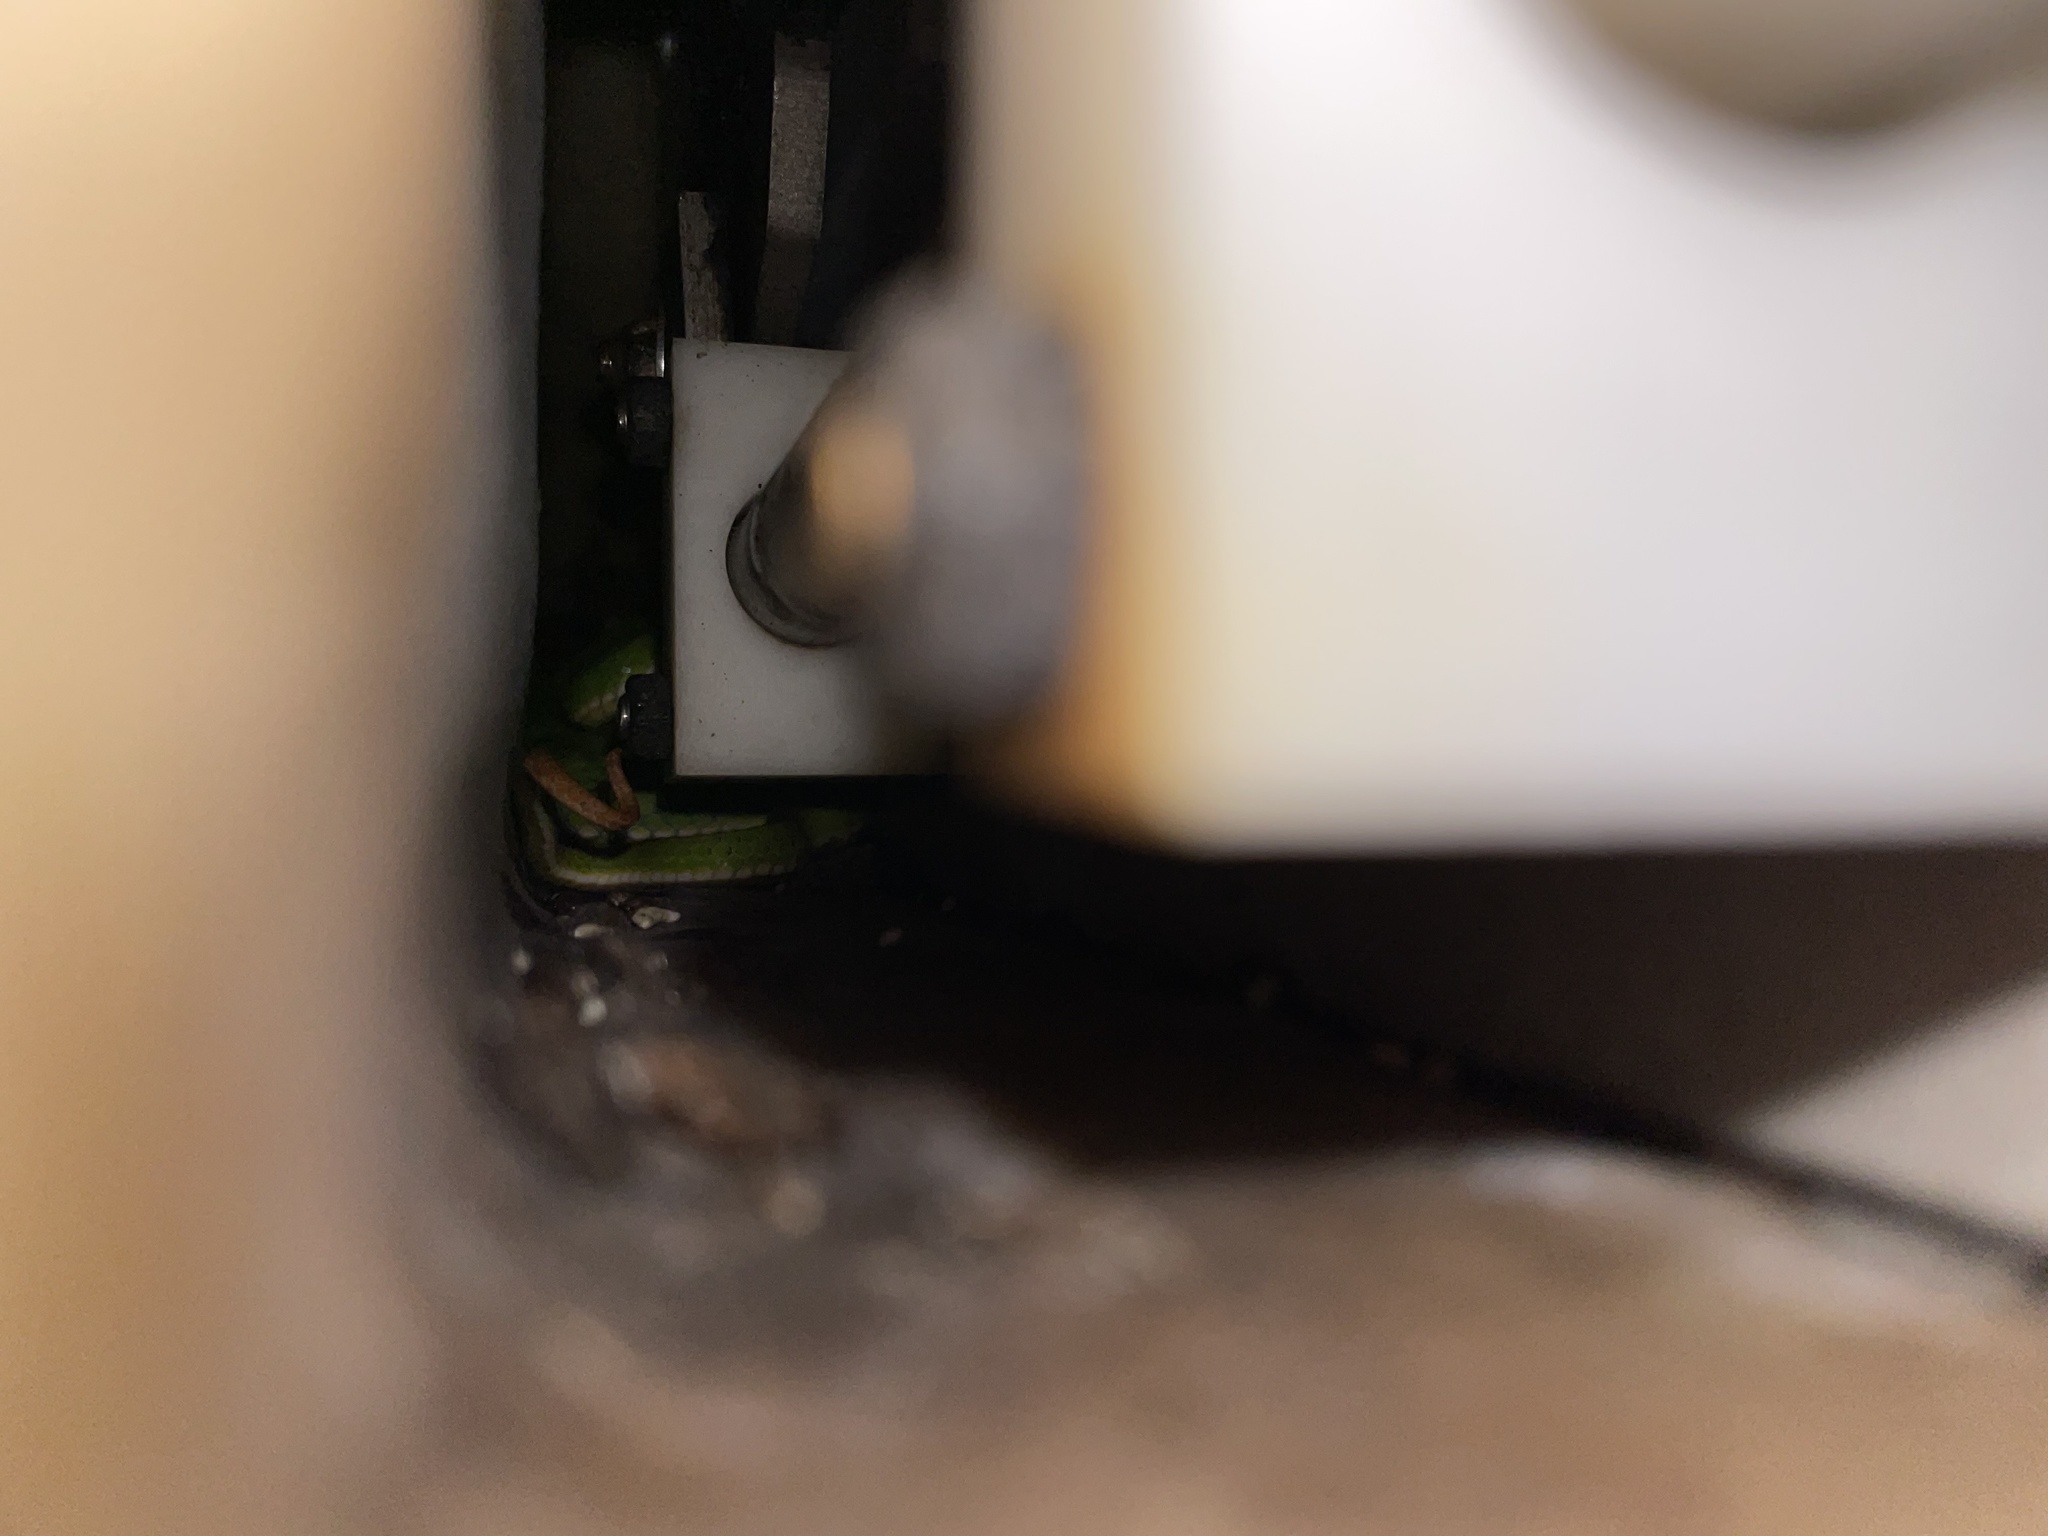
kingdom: Animalia
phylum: Chordata
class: Squamata
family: Viperidae
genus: Trimeresurus
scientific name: Trimeresurus albolabris
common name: White-lipped pitviper
